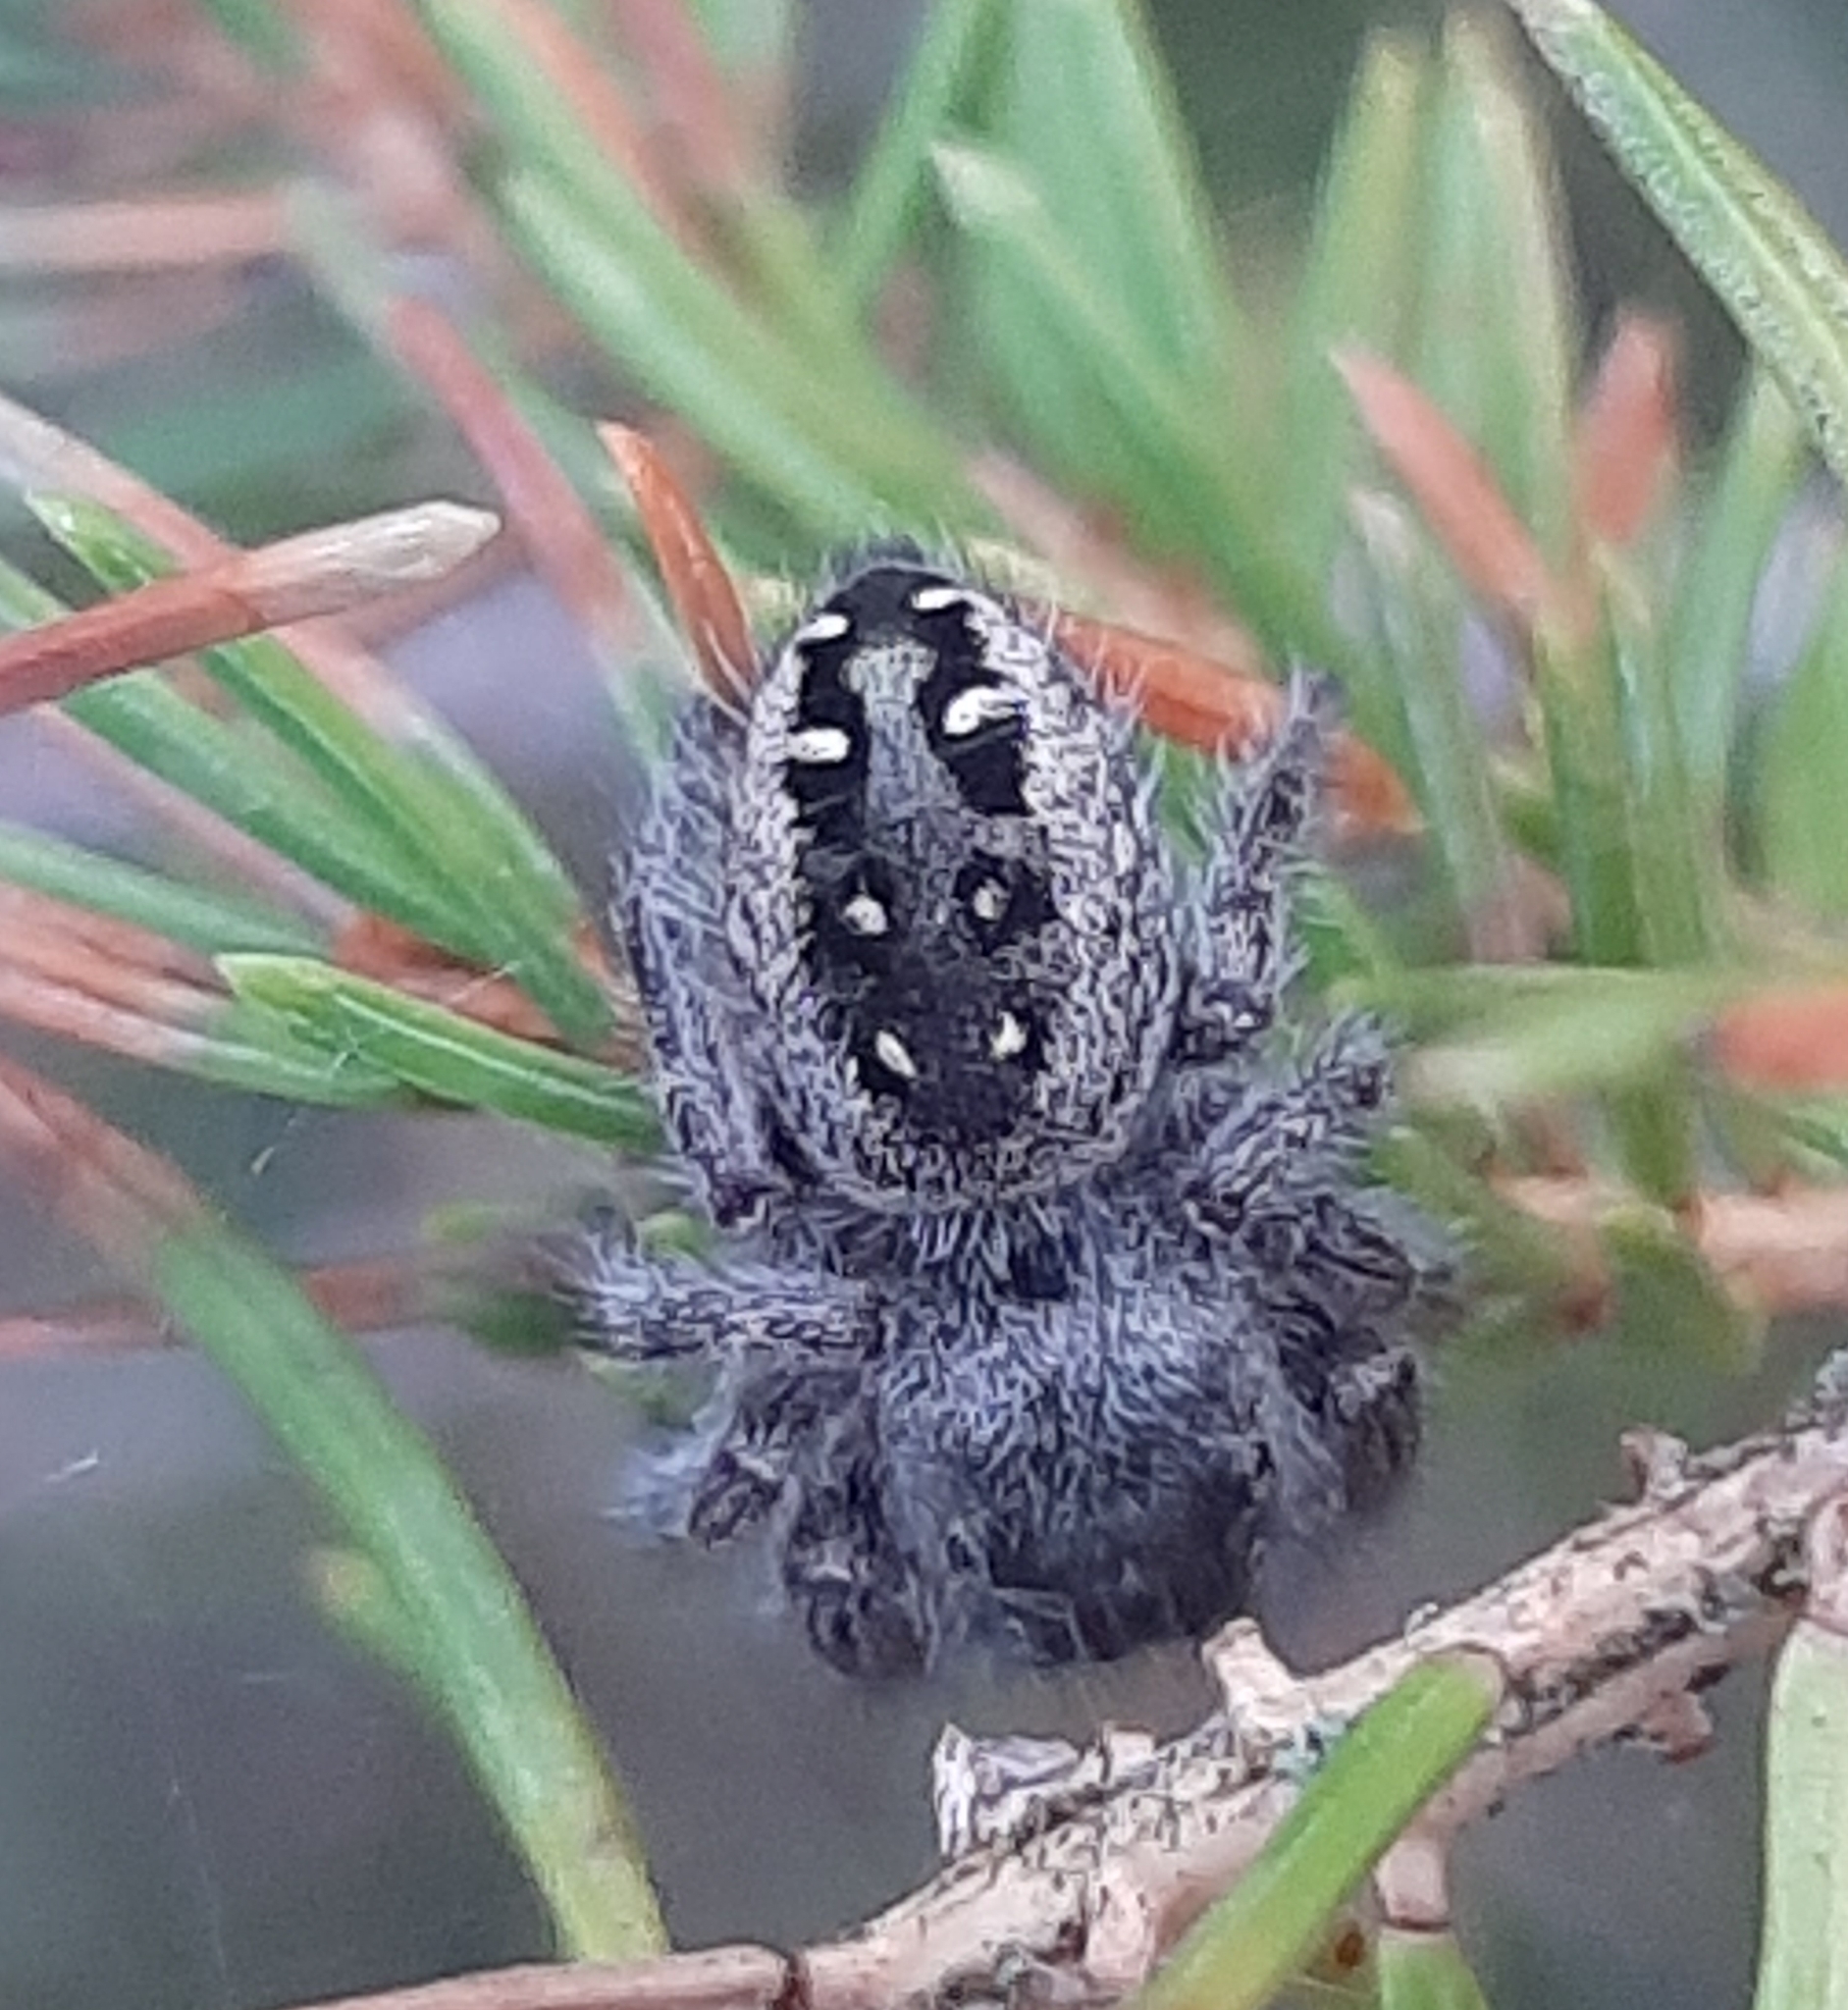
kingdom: Animalia
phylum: Arthropoda
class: Arachnida
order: Araneae
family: Salticidae
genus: Phidippus
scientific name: Phidippus purpuratus
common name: Marbled purple jumping spider
